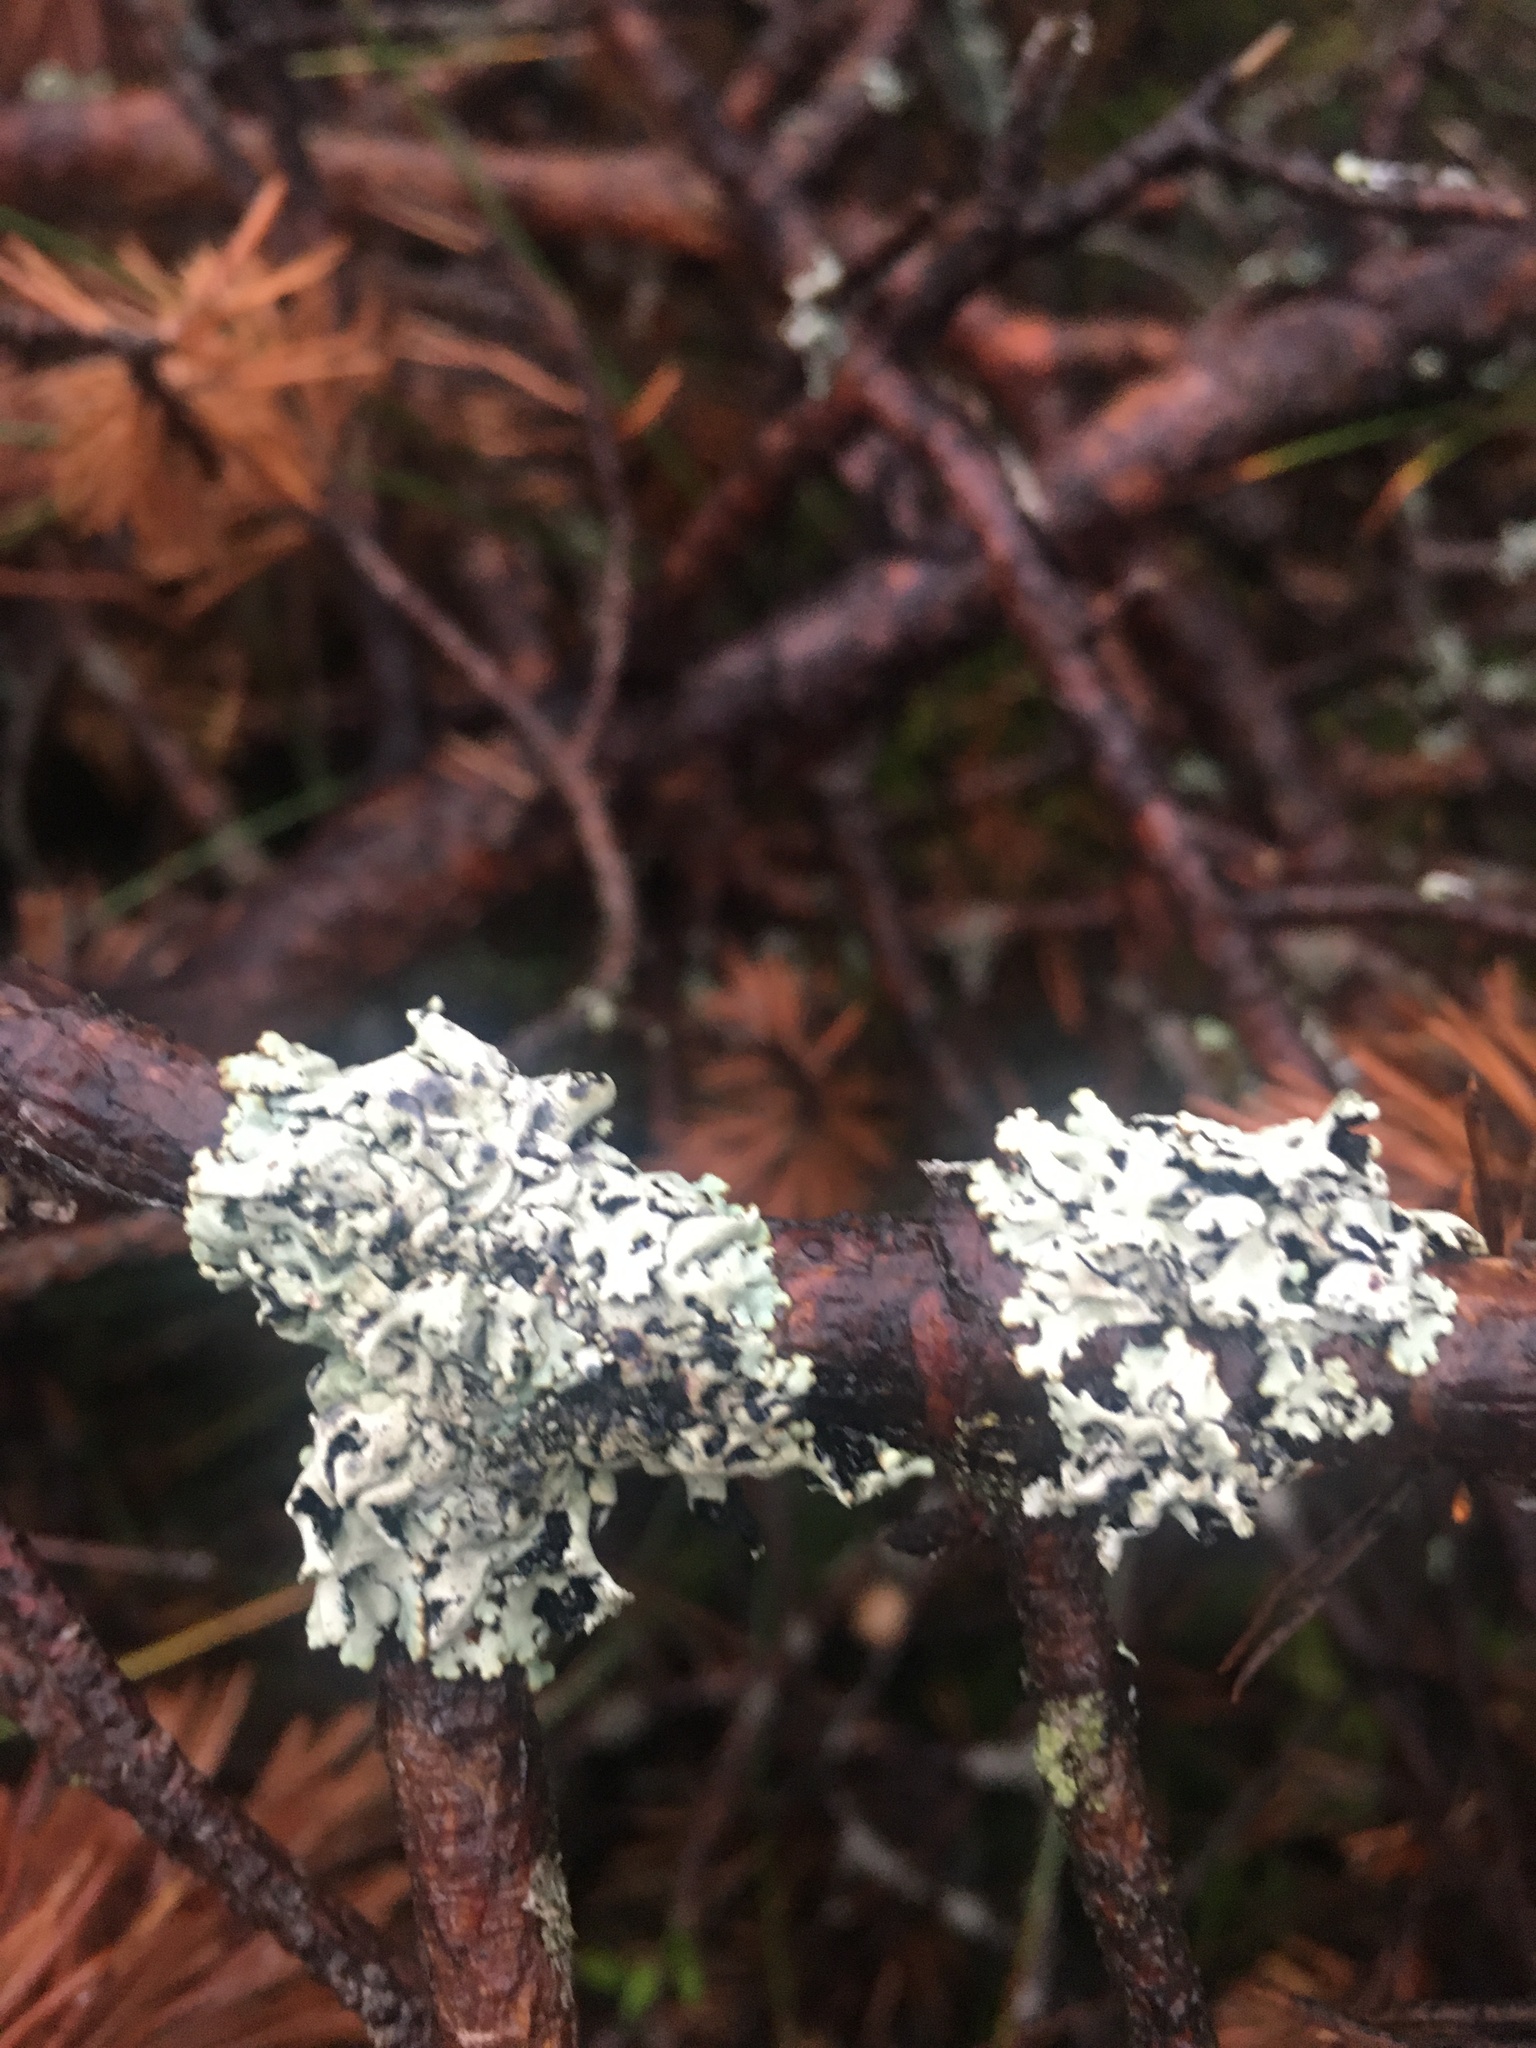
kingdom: Fungi
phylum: Ascomycota
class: Lecanoromycetes
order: Lecanorales
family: Parmeliaceae
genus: Hypogymnia
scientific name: Hypogymnia physodes
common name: Dark crottle
